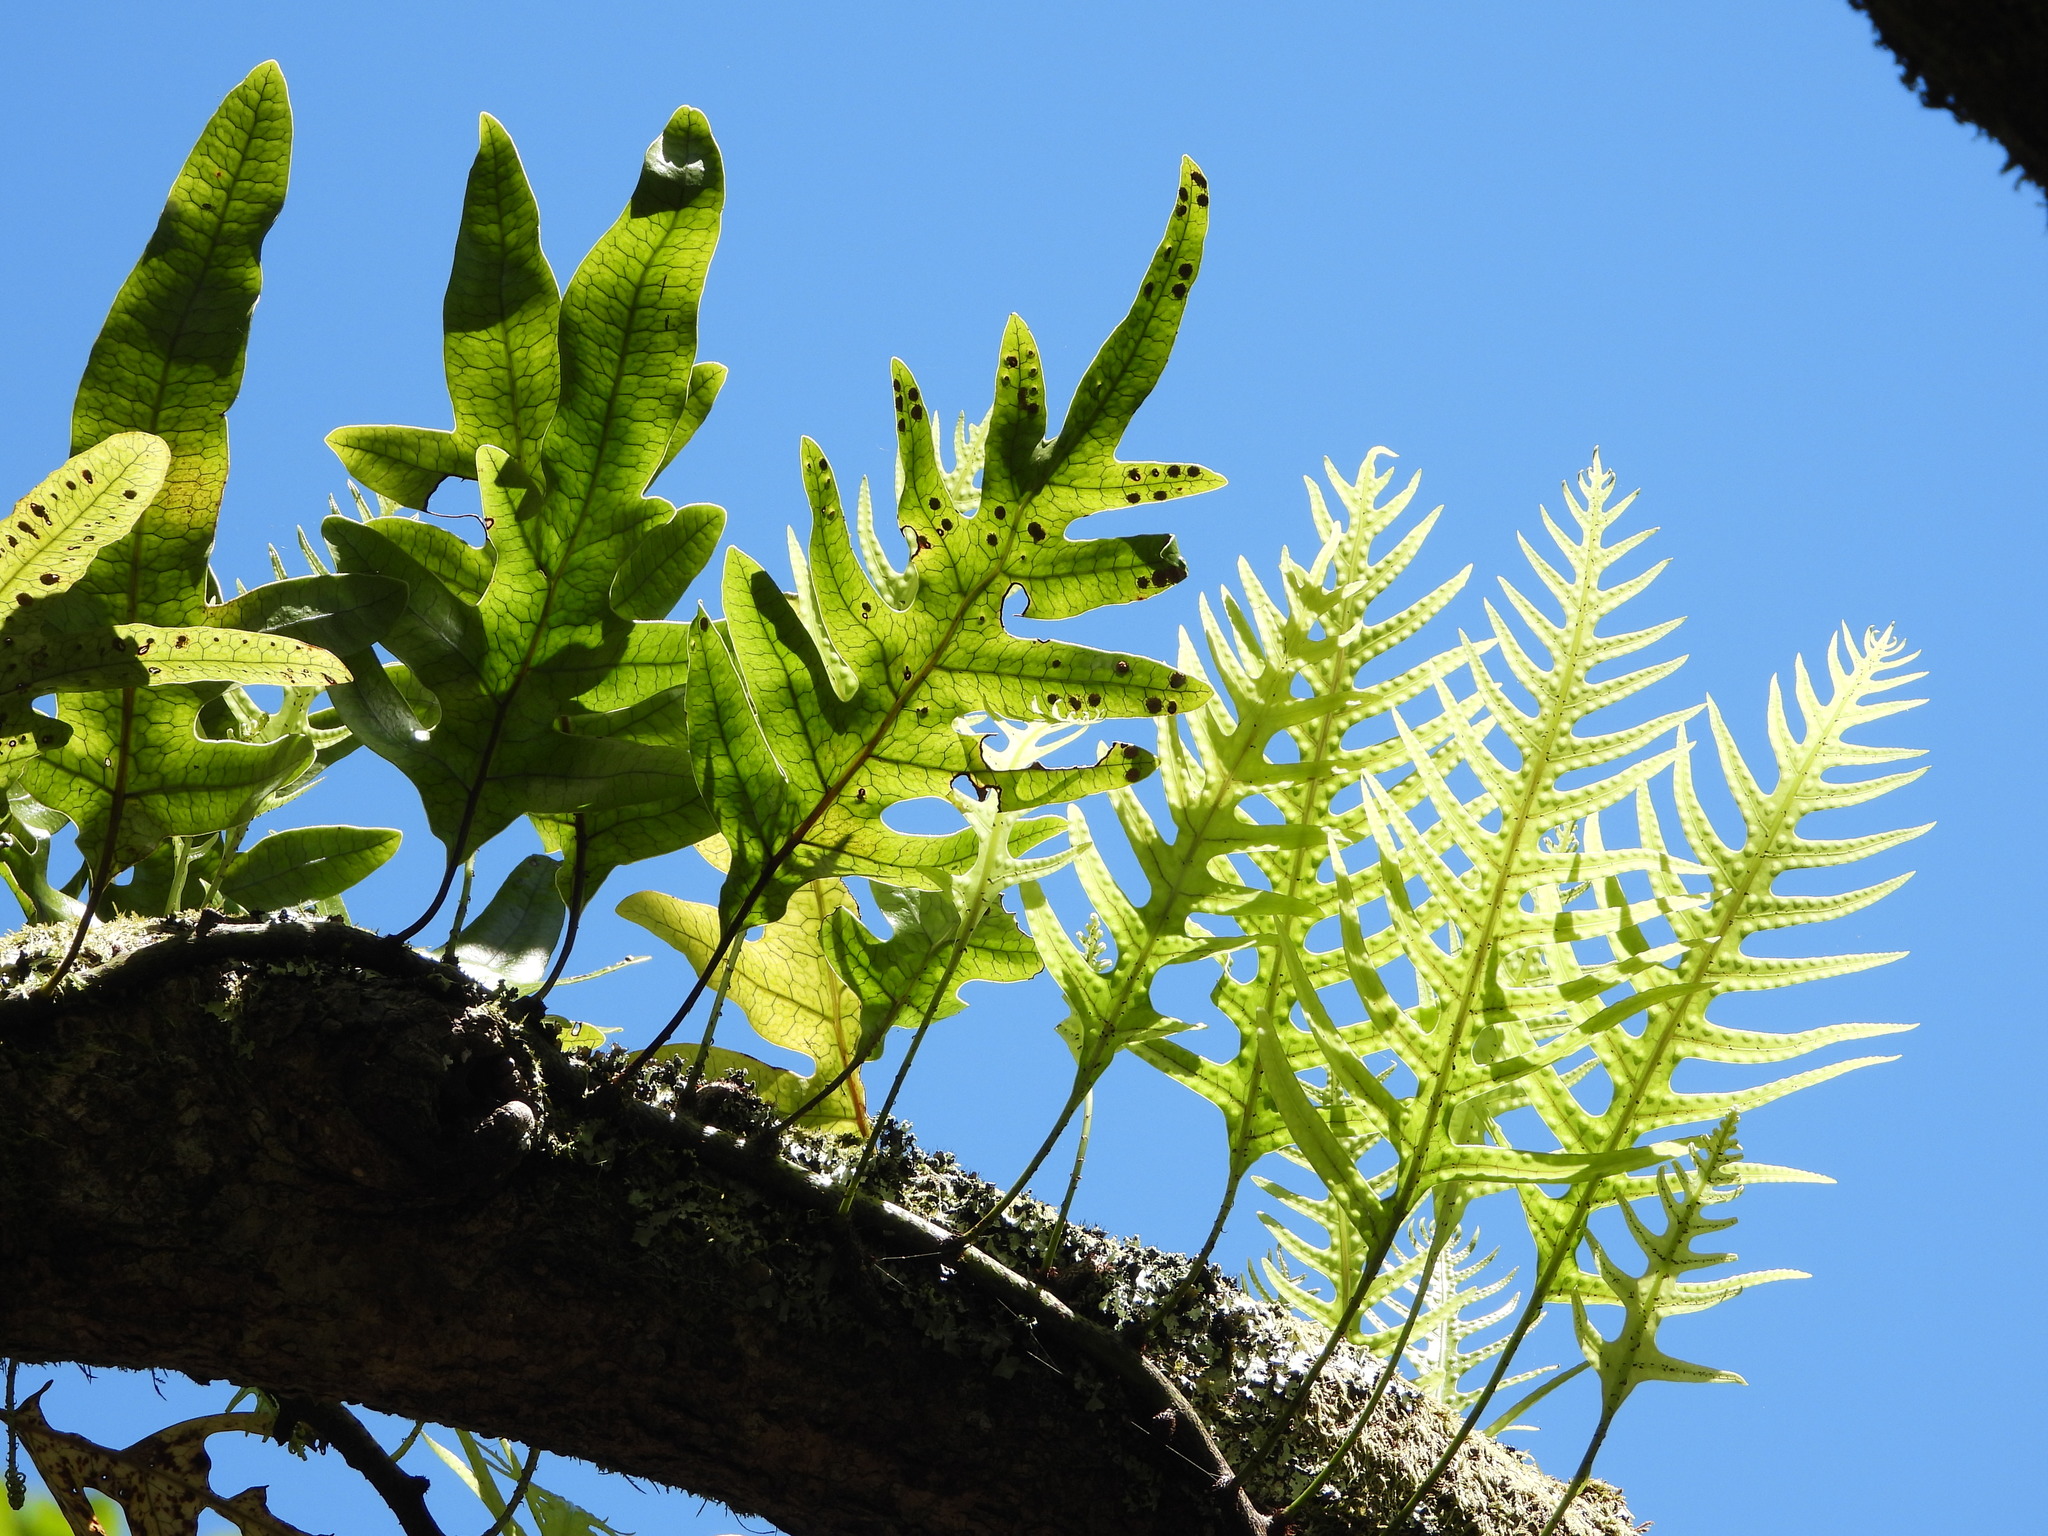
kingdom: Plantae
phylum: Tracheophyta
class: Polypodiopsida
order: Polypodiales
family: Polypodiaceae
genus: Lecanopteris
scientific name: Lecanopteris pustulata
